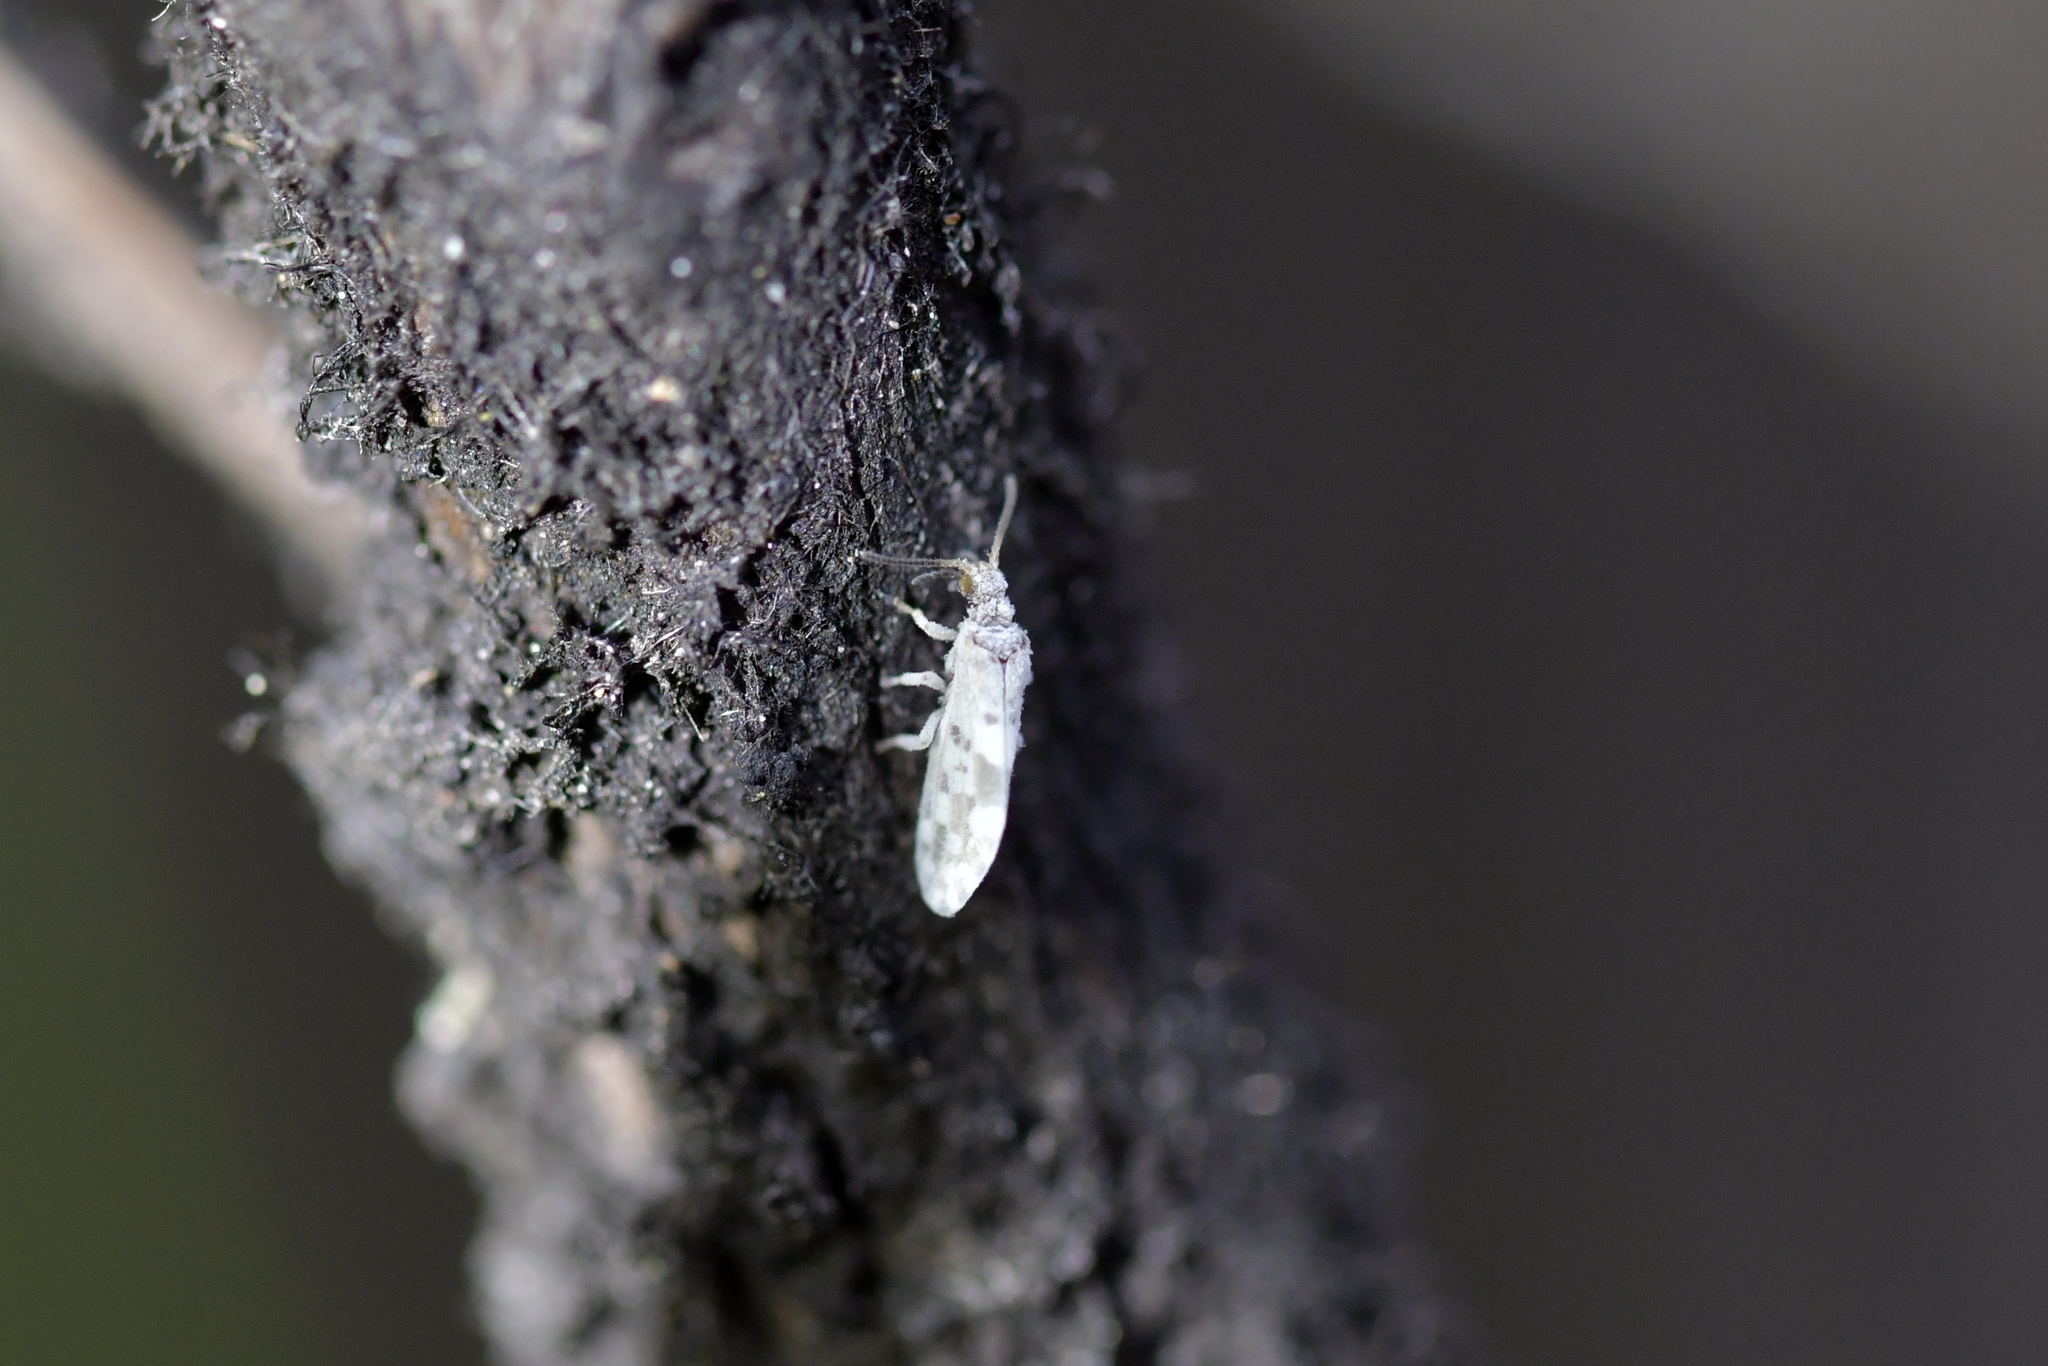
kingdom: Animalia
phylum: Arthropoda
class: Insecta
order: Neuroptera
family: Coniopterygidae
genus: Heteroconis
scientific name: Heteroconis ornata
